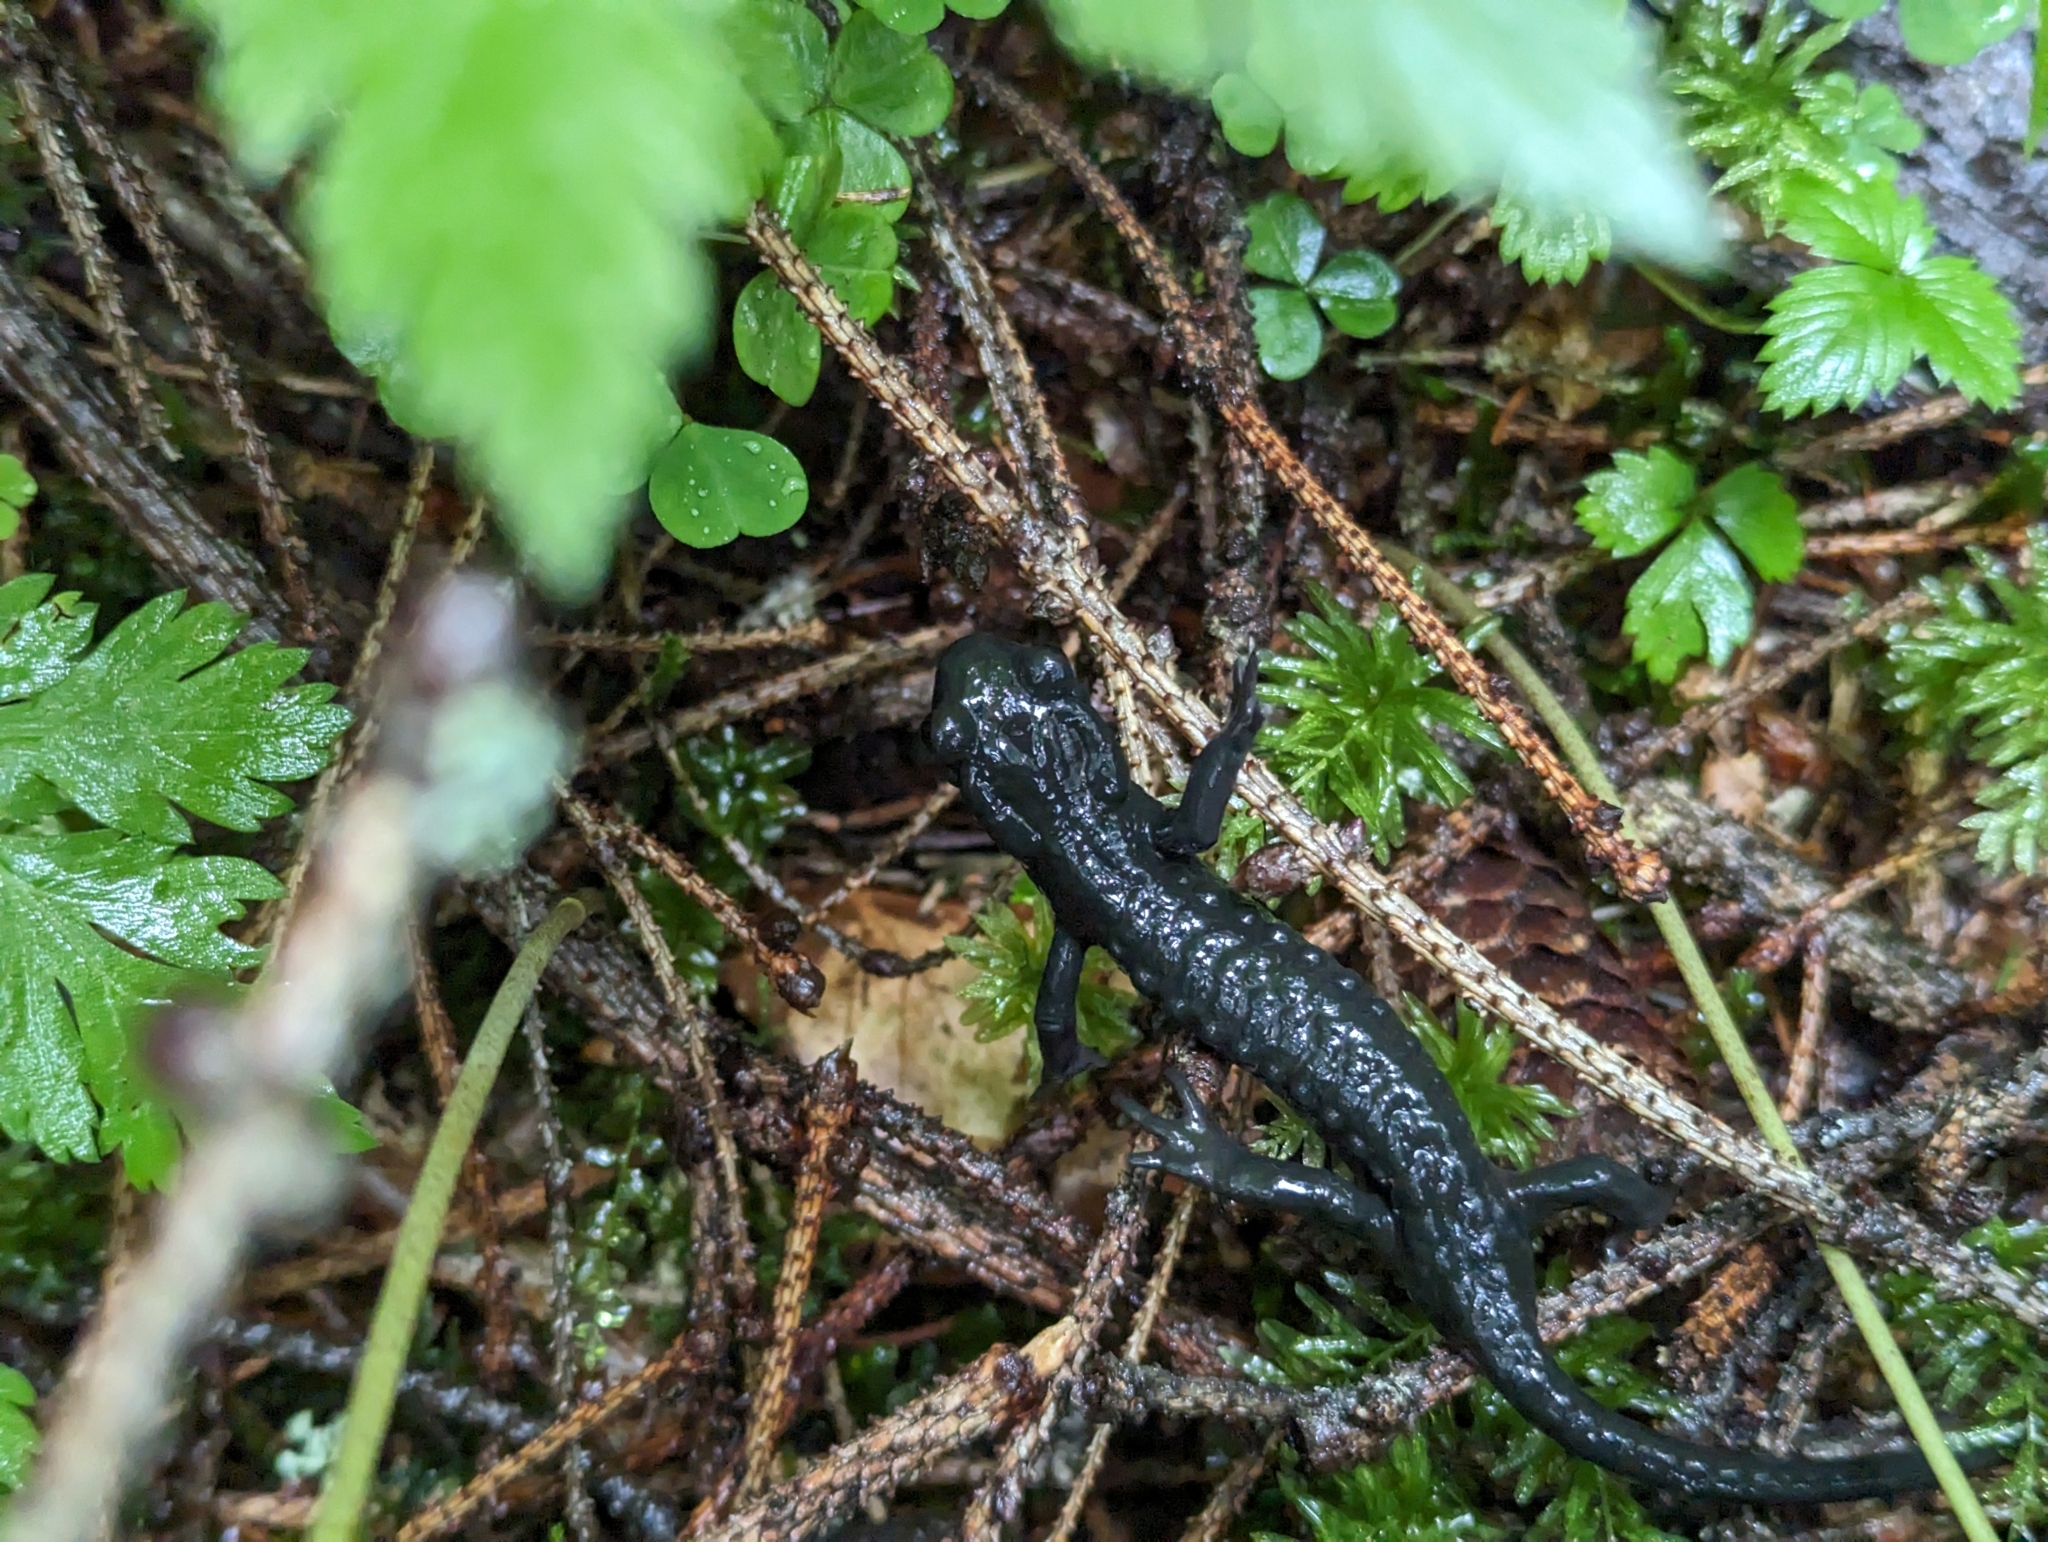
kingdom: Animalia
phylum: Chordata
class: Amphibia
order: Caudata
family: Salamandridae
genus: Salamandra
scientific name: Salamandra atra
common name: Alpine salamander
